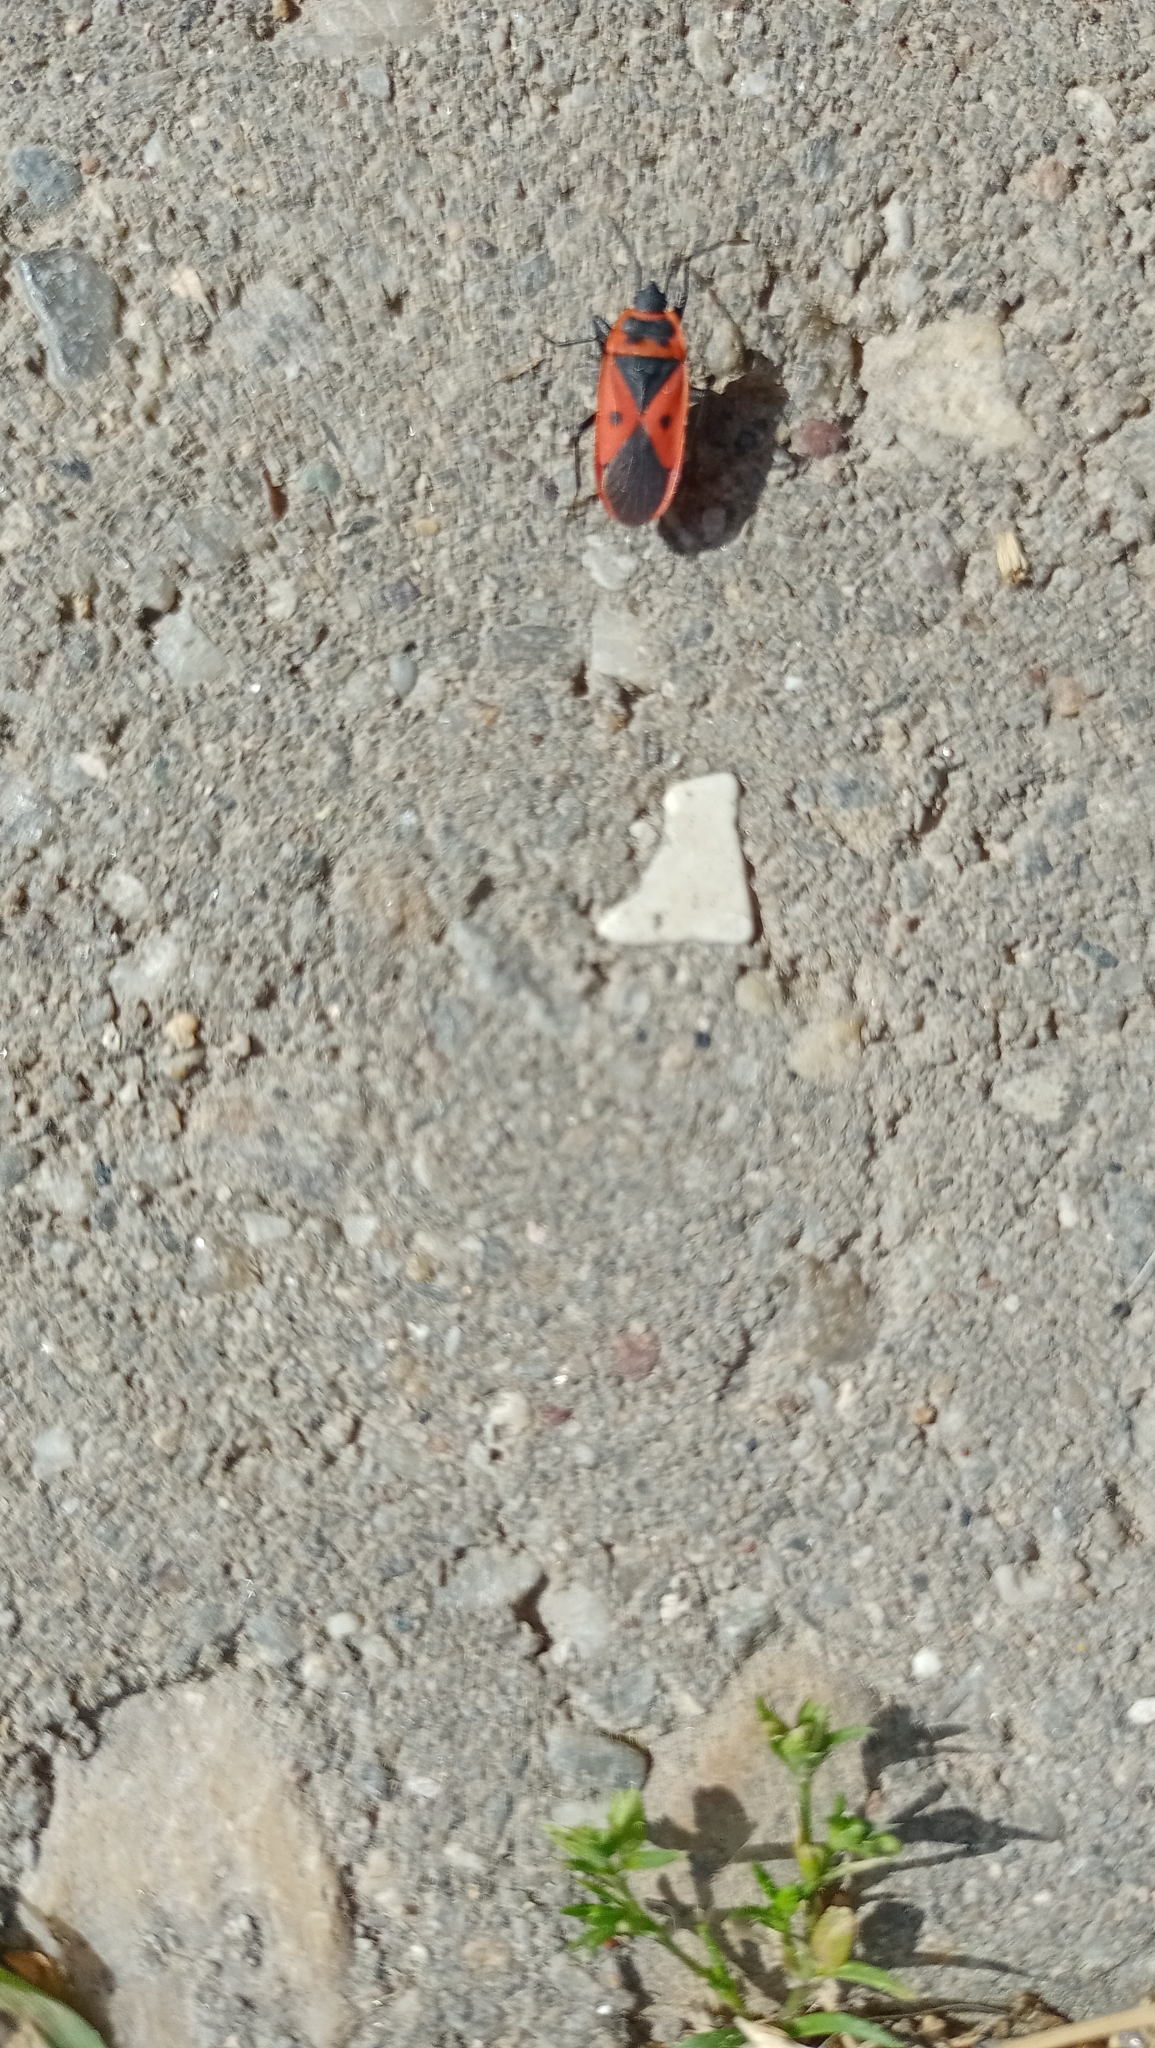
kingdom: Animalia
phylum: Arthropoda
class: Insecta
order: Hemiptera
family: Pyrrhocoridae
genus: Scantius
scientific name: Scantius aegyptius
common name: Red bug
